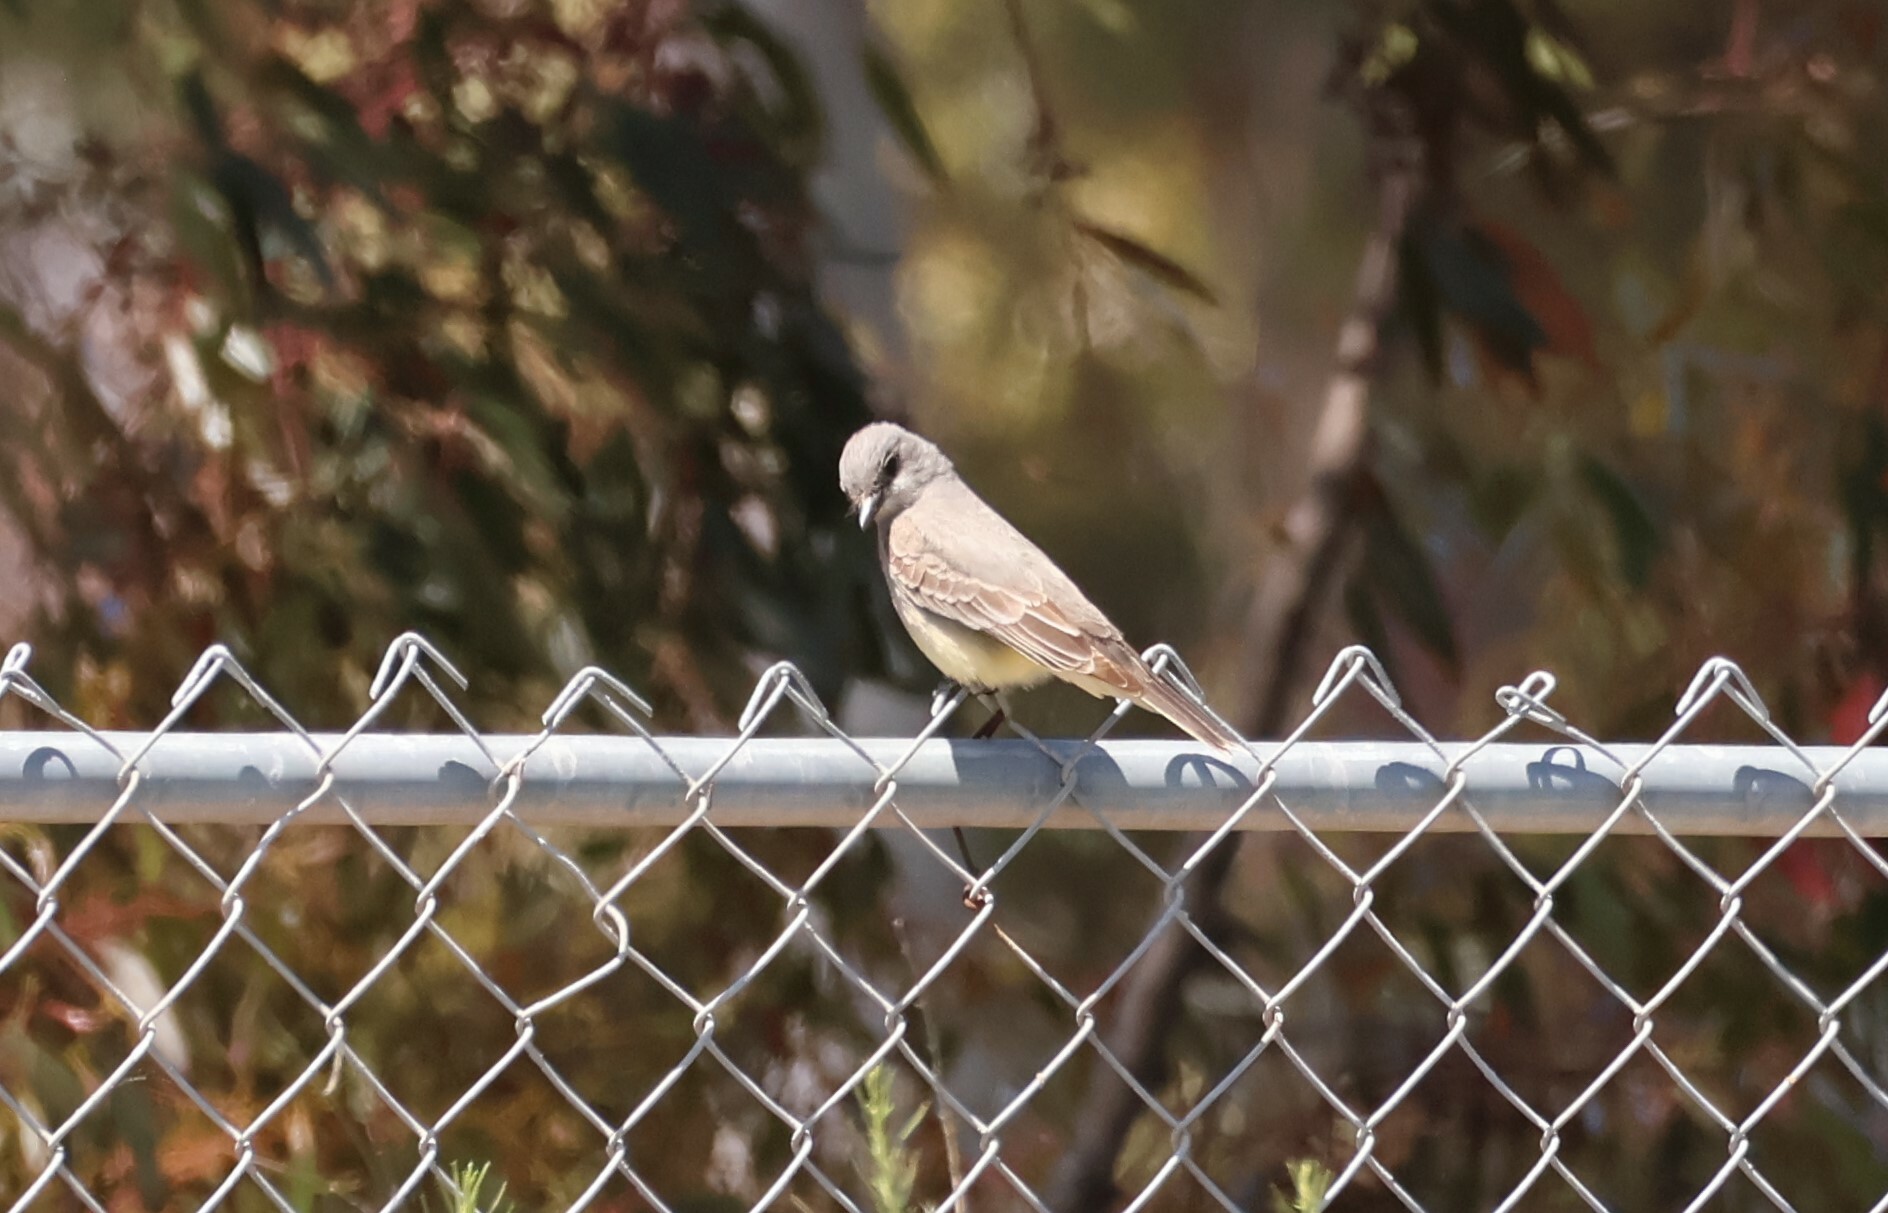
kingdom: Animalia
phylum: Chordata
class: Aves
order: Passeriformes
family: Tyrannidae
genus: Tyrannus
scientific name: Tyrannus vociferans
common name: Cassin's kingbird
